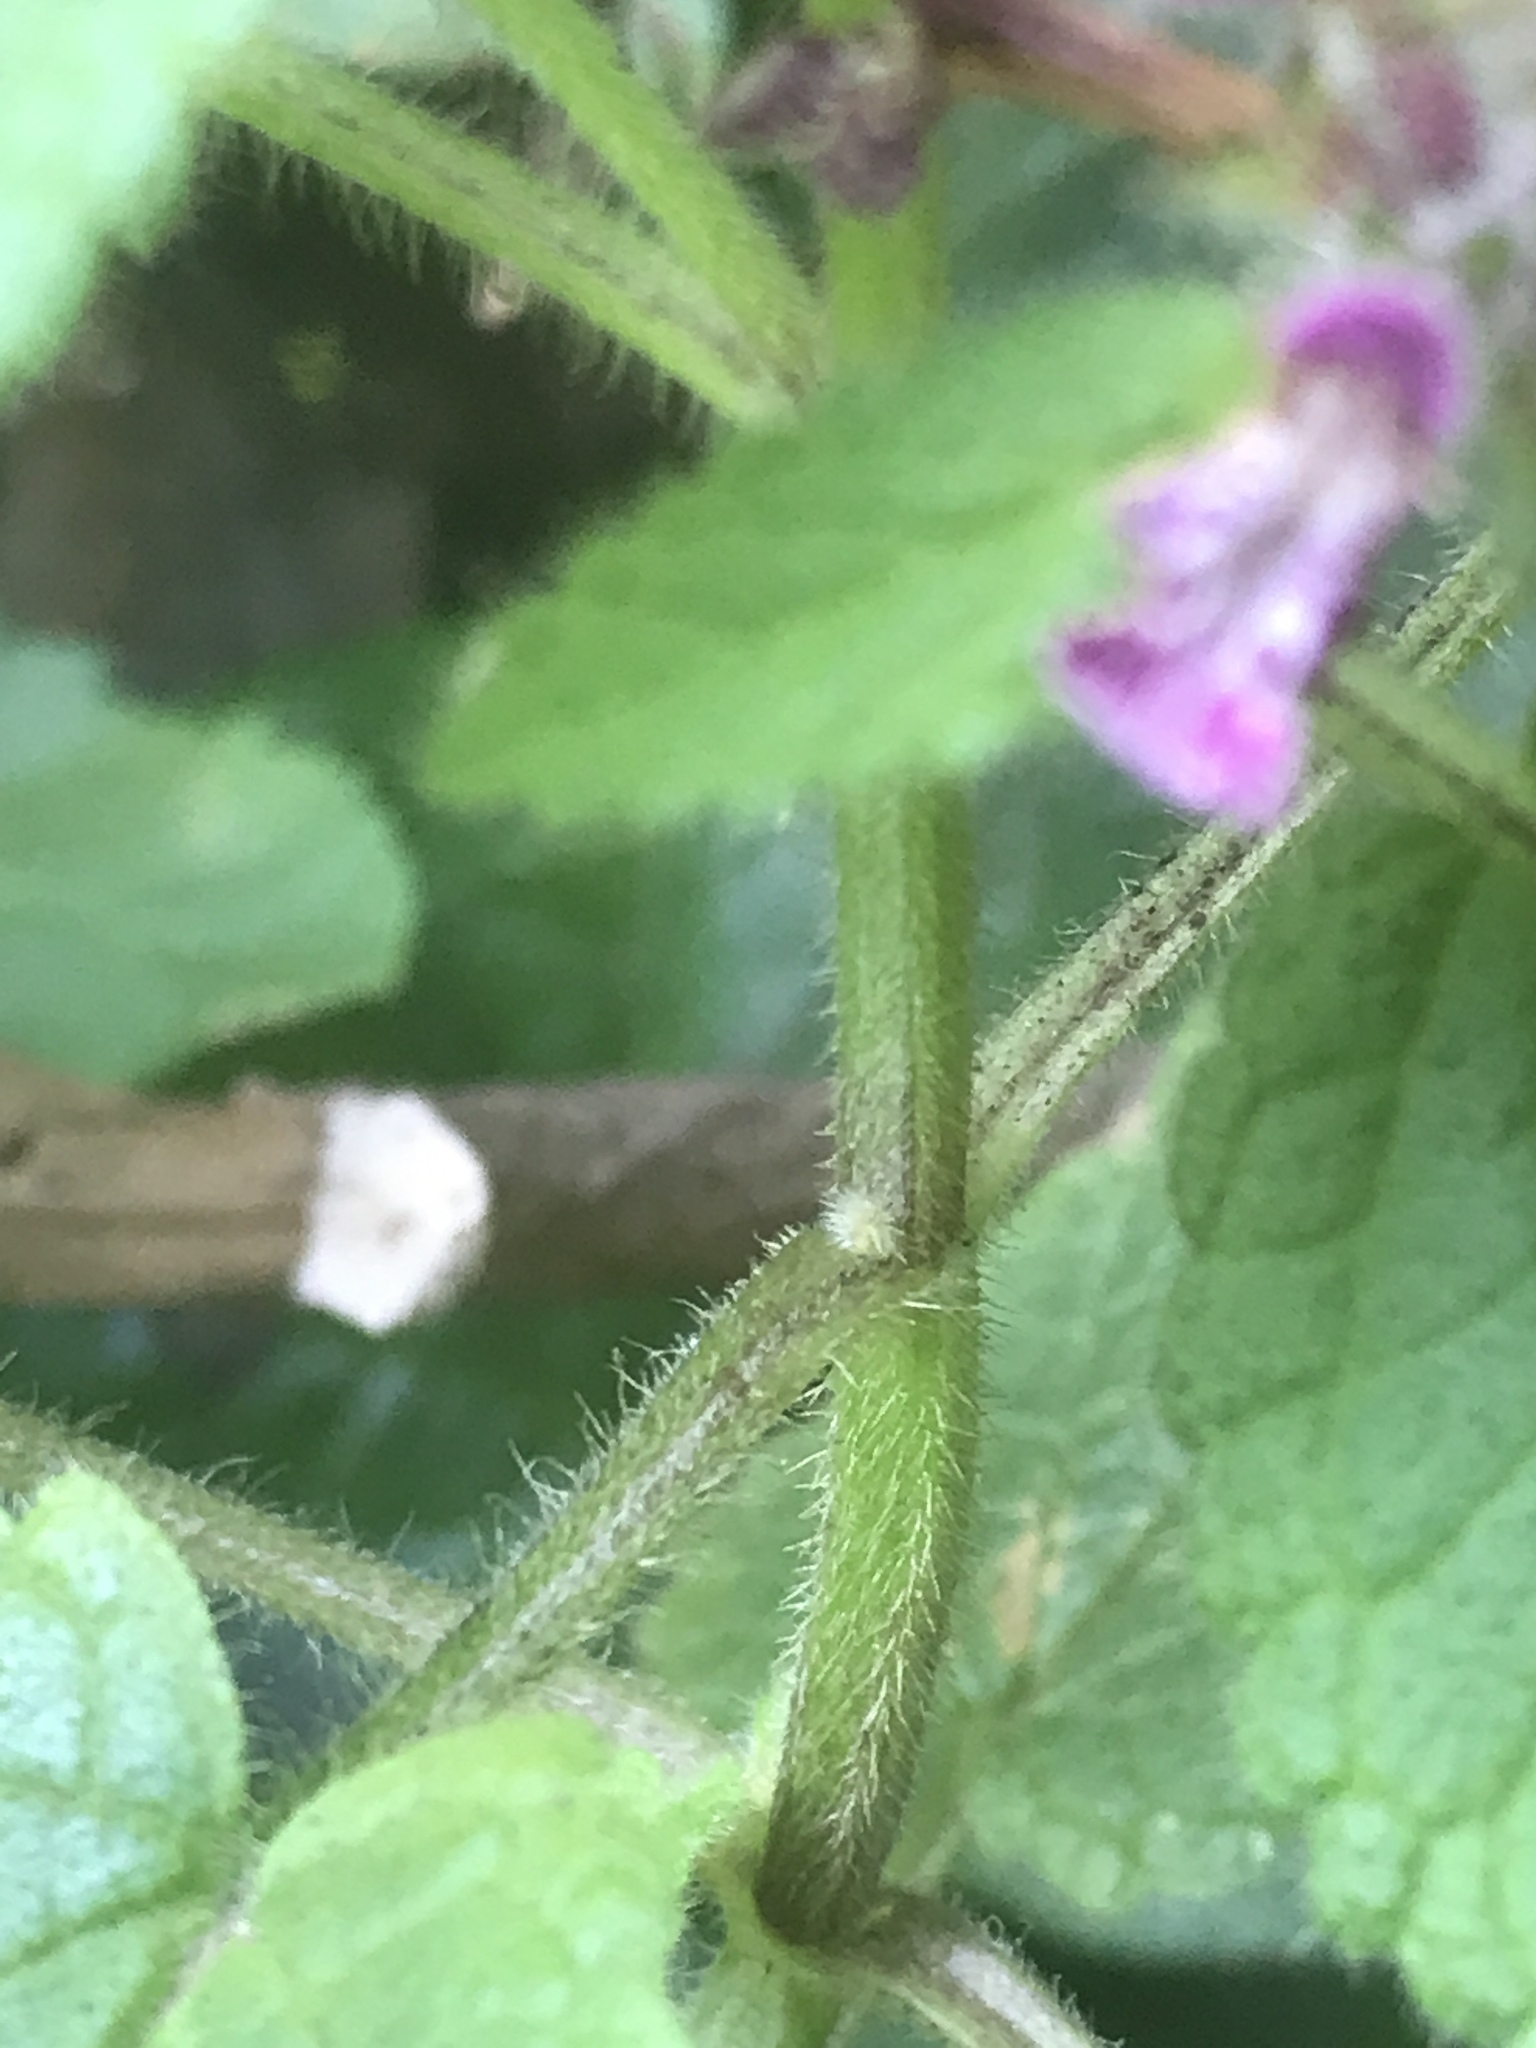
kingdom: Plantae
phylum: Tracheophyta
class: Magnoliopsida
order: Lamiales
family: Lamiaceae
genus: Stachys
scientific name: Stachys mexicana
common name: Mexican hedge-nettle
